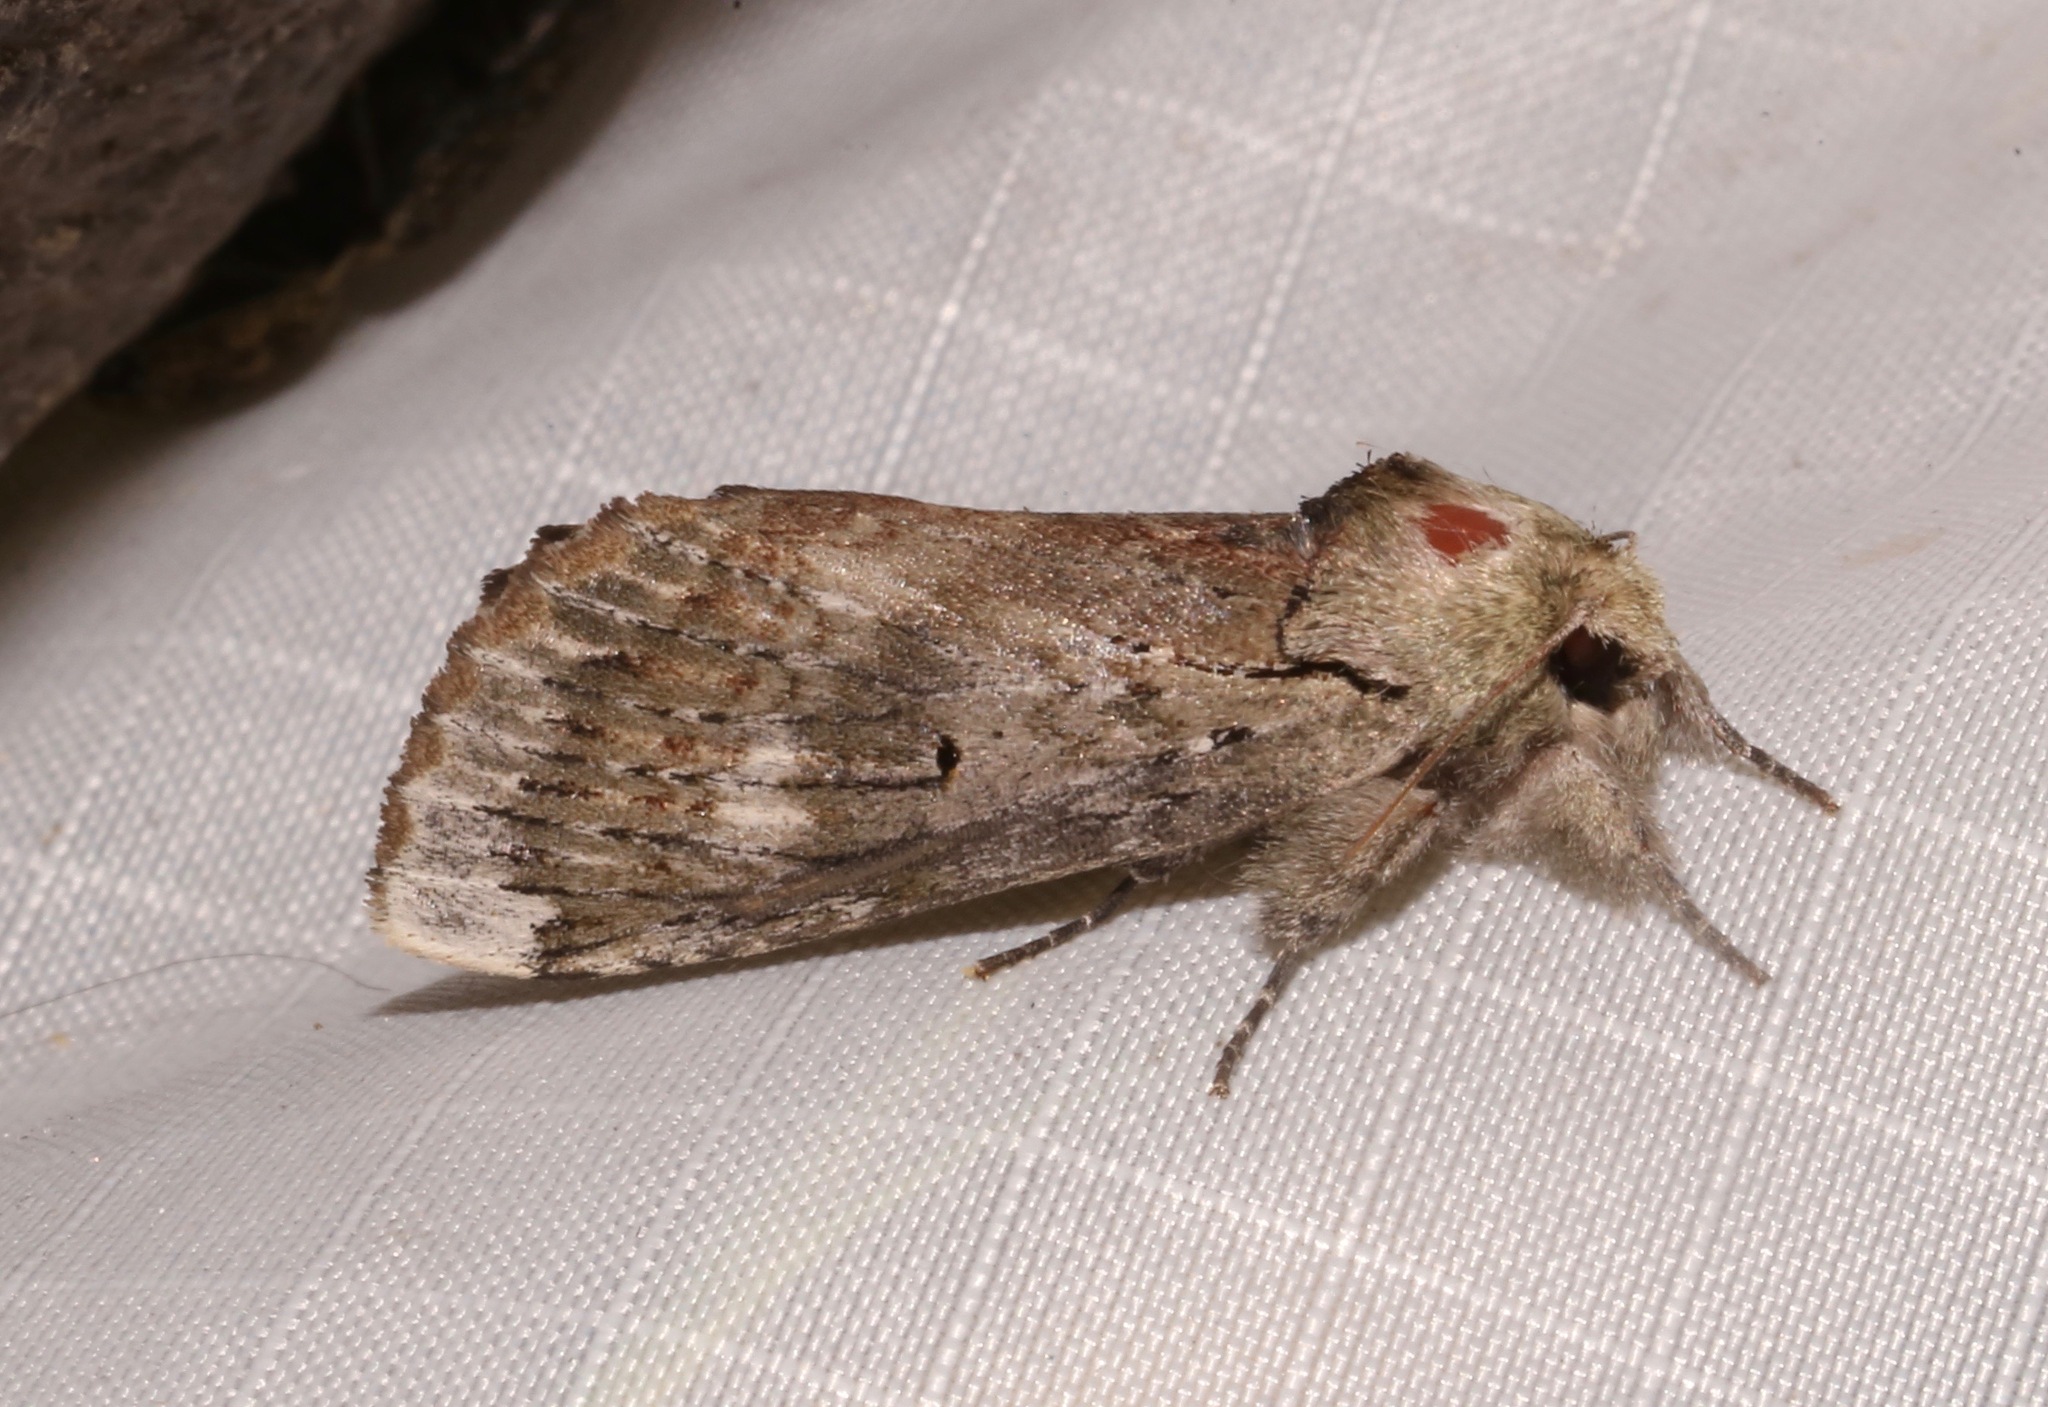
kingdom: Animalia
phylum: Arthropoda
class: Insecta
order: Lepidoptera
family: Notodontidae
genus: Schizura
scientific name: Schizura
